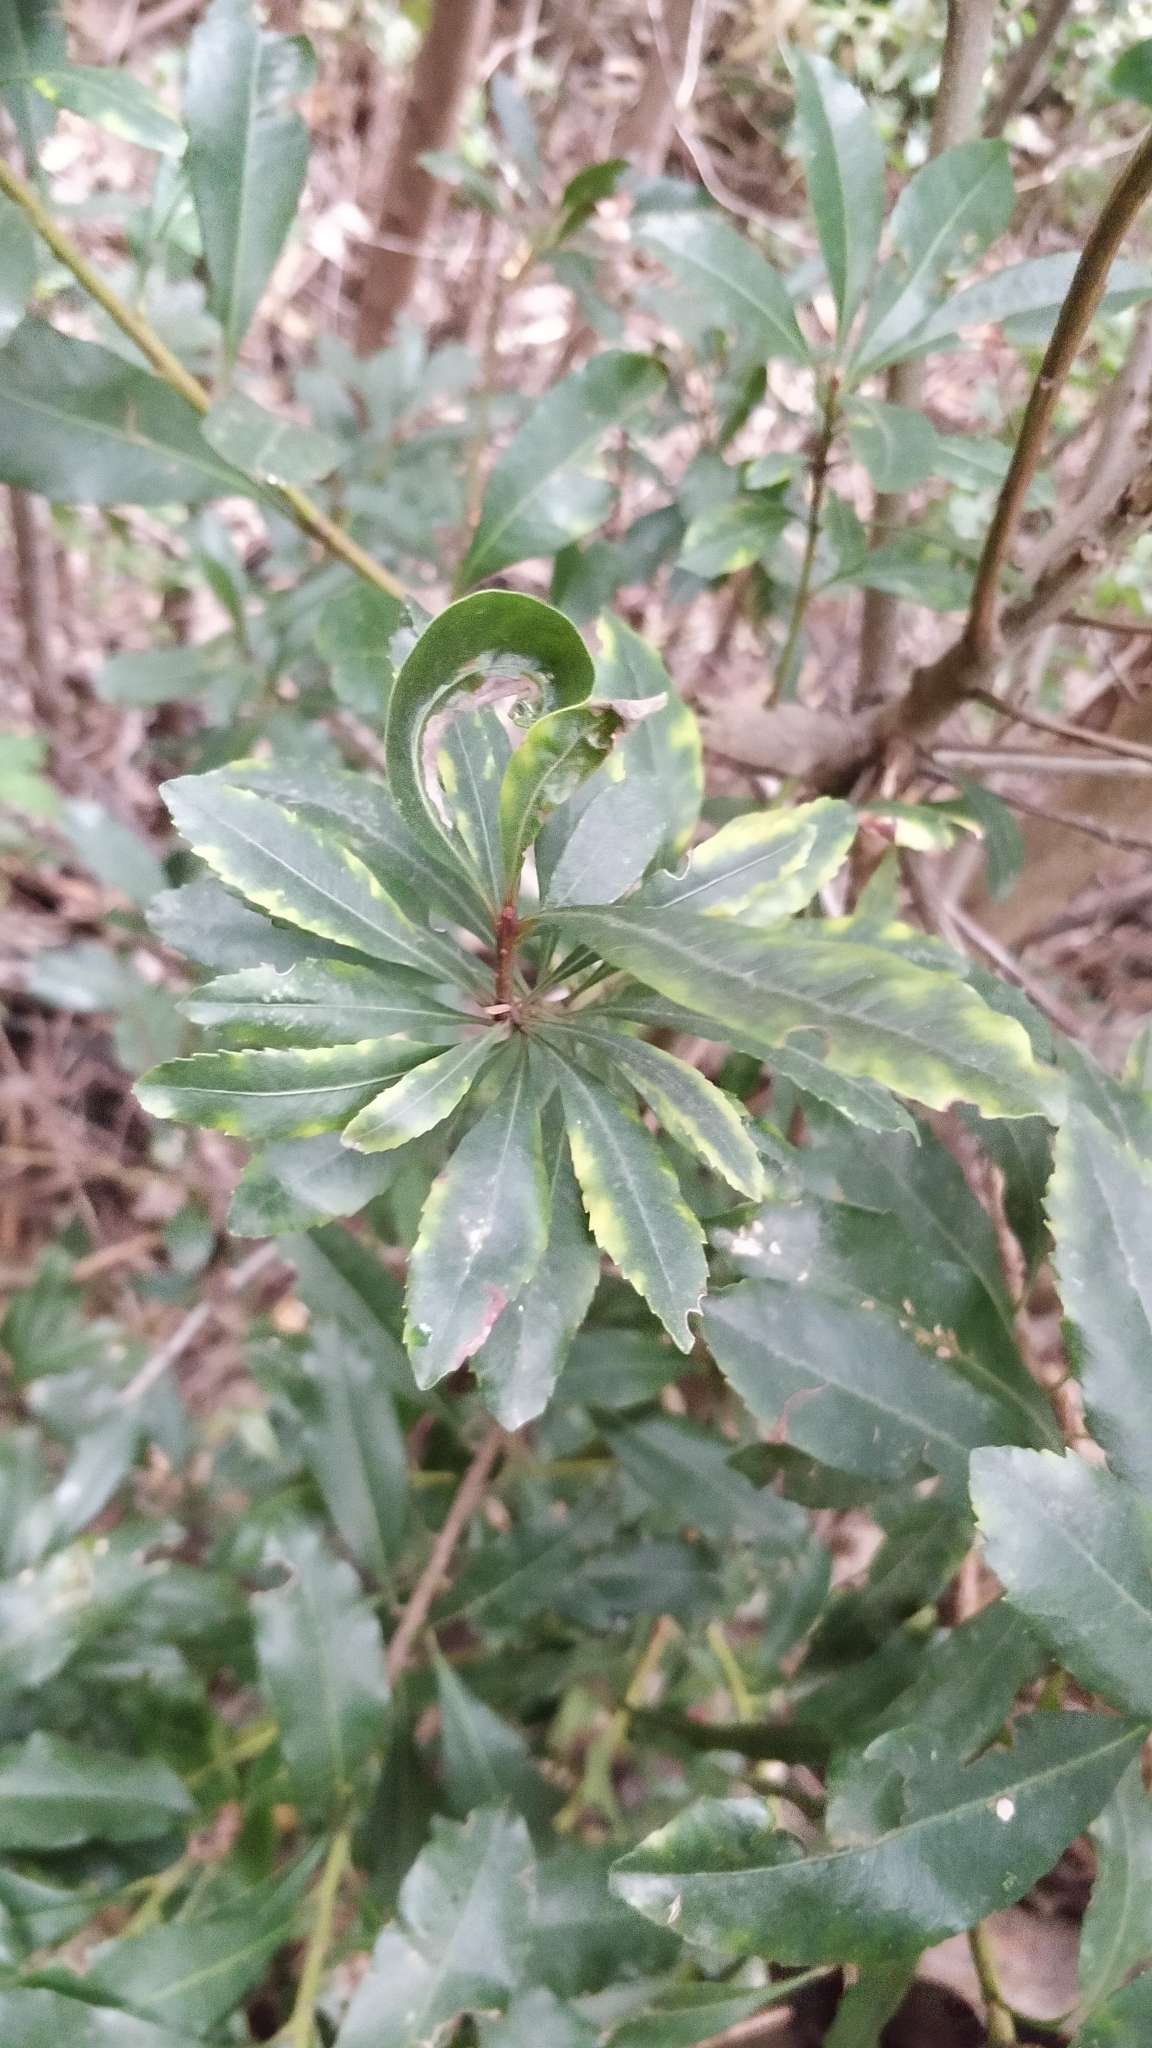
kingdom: Plantae
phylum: Tracheophyta
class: Magnoliopsida
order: Fagales
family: Myricaceae
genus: Morella
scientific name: Morella faya
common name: Firetree
